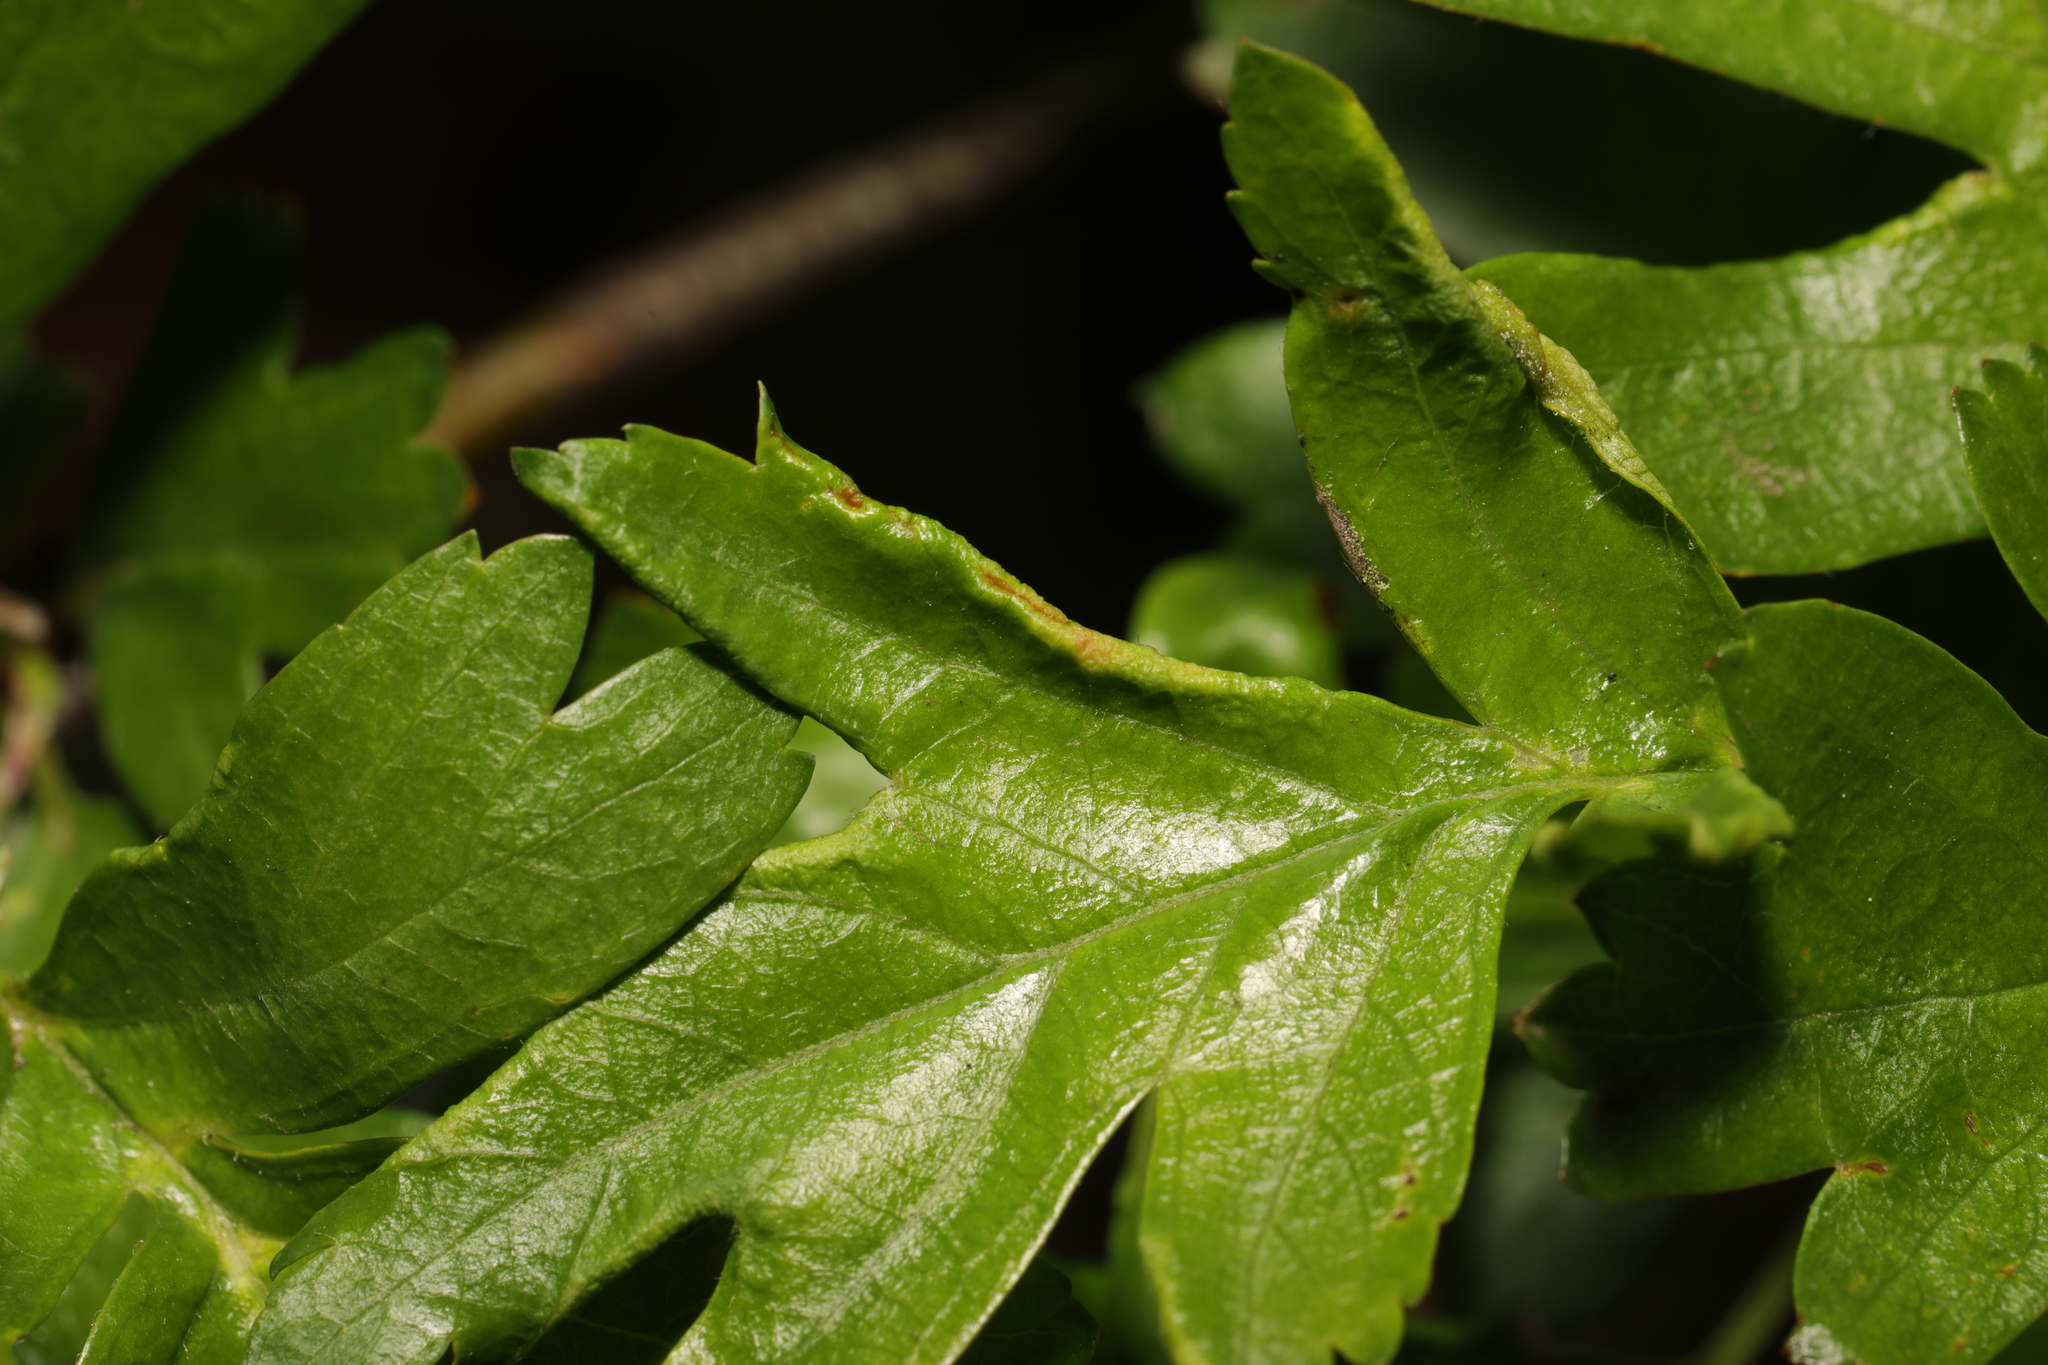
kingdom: Animalia
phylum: Arthropoda
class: Arachnida
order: Trombidiformes
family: Eriophyidae
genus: Phyllocoptes
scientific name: Phyllocoptes goniothorax
